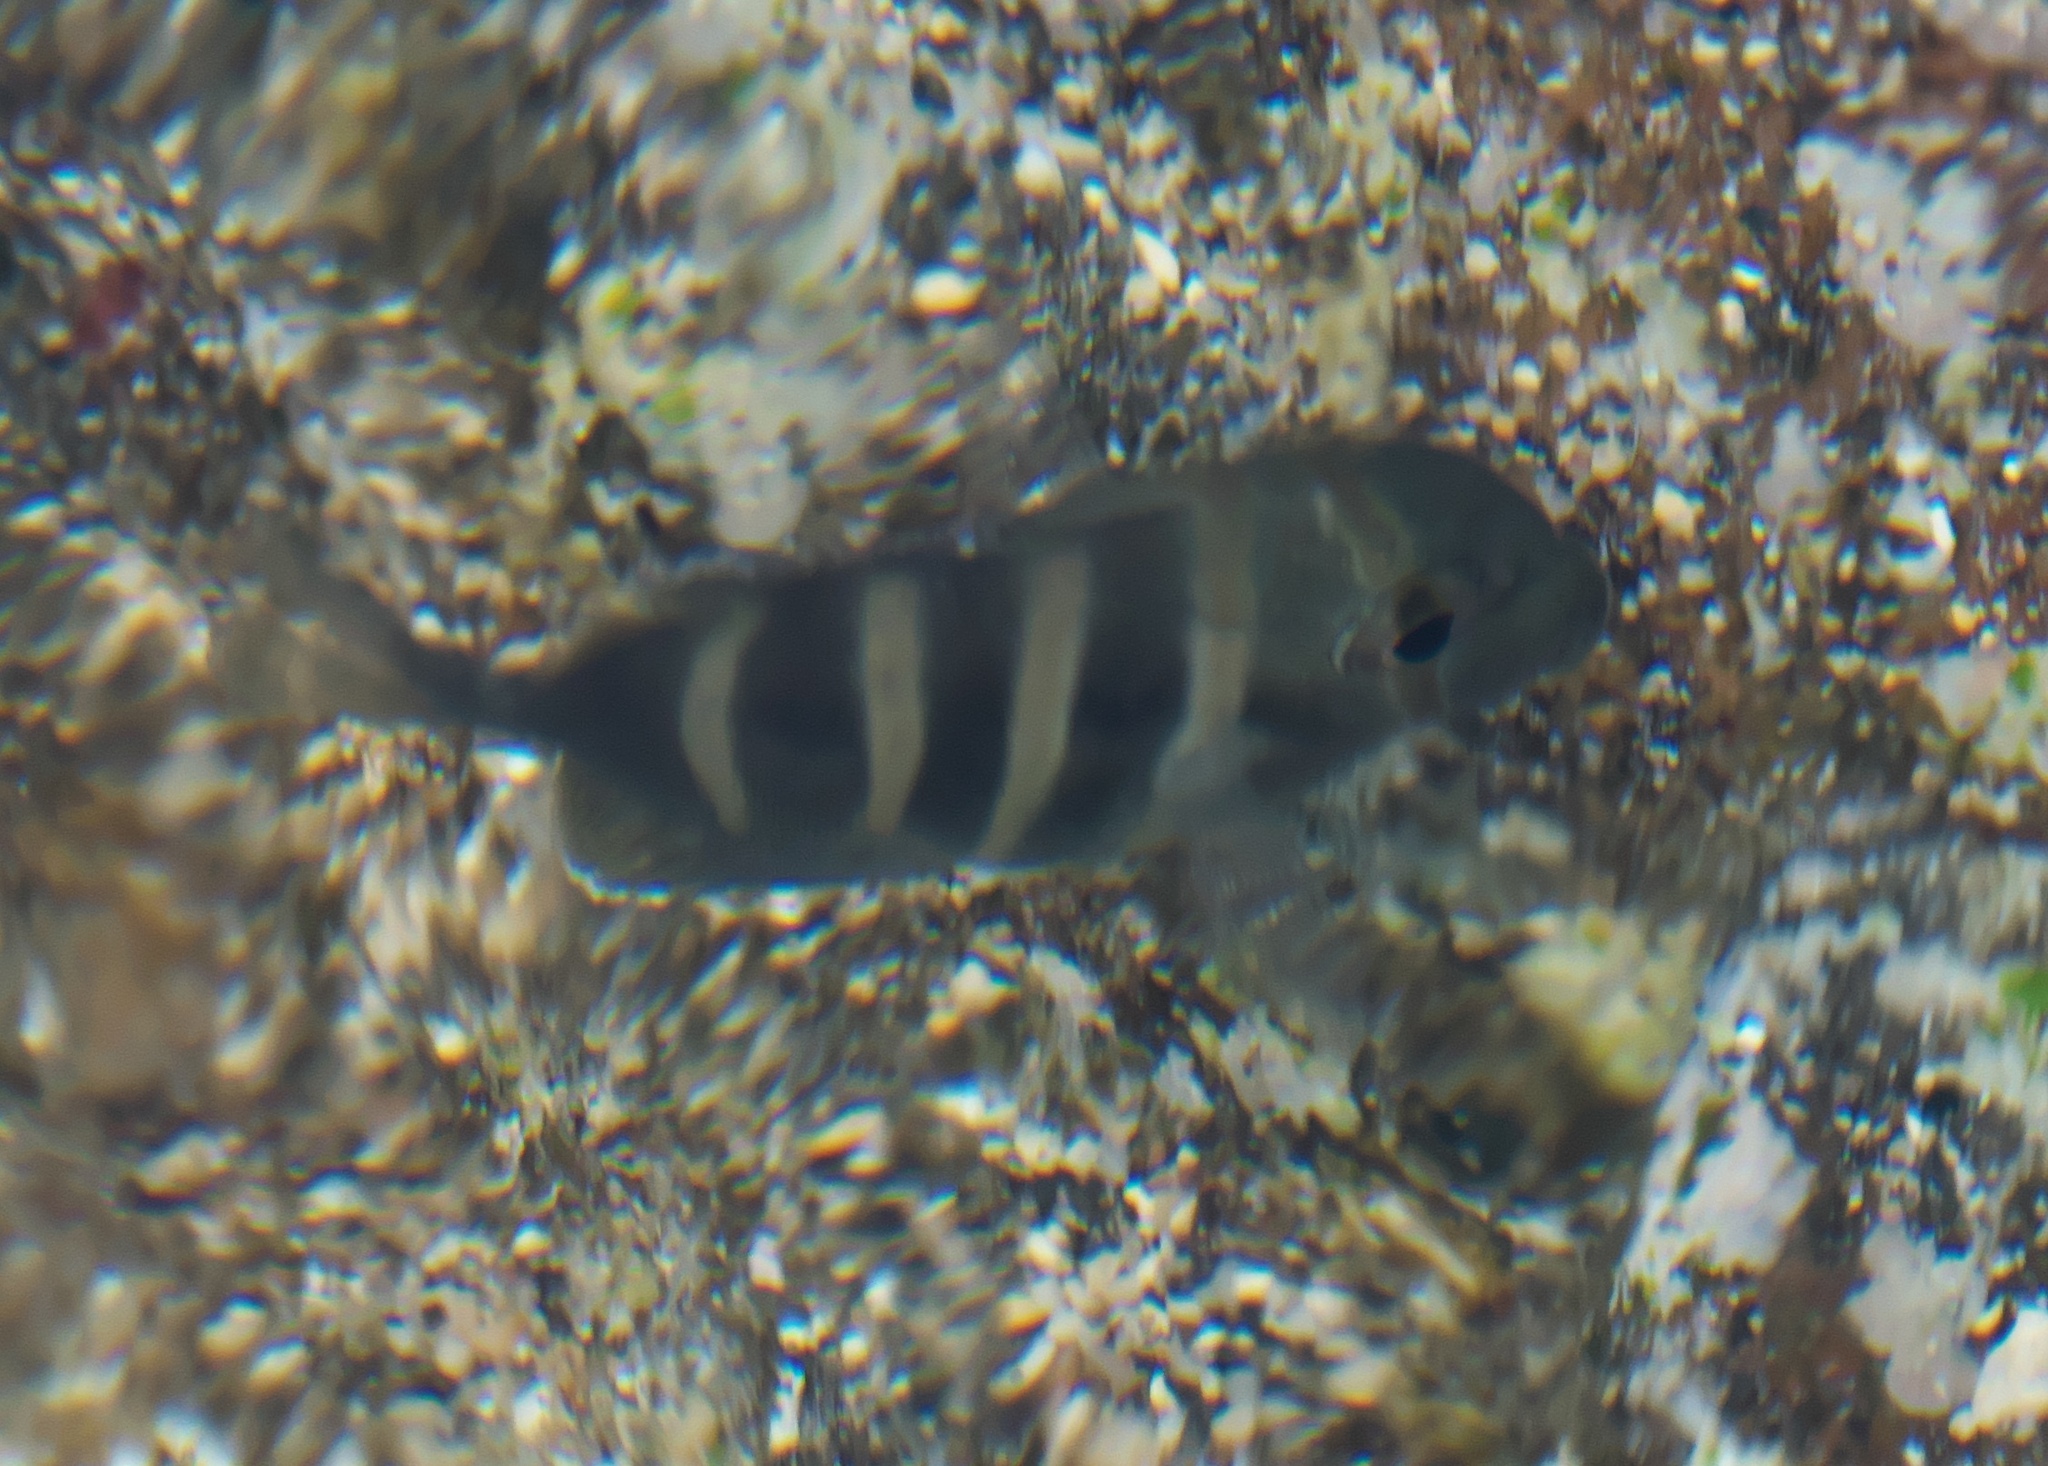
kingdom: Animalia
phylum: Chordata
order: Perciformes
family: Acanthuridae
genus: Acanthurus
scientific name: Acanthurus triostegus
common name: Convict surgeonfish
